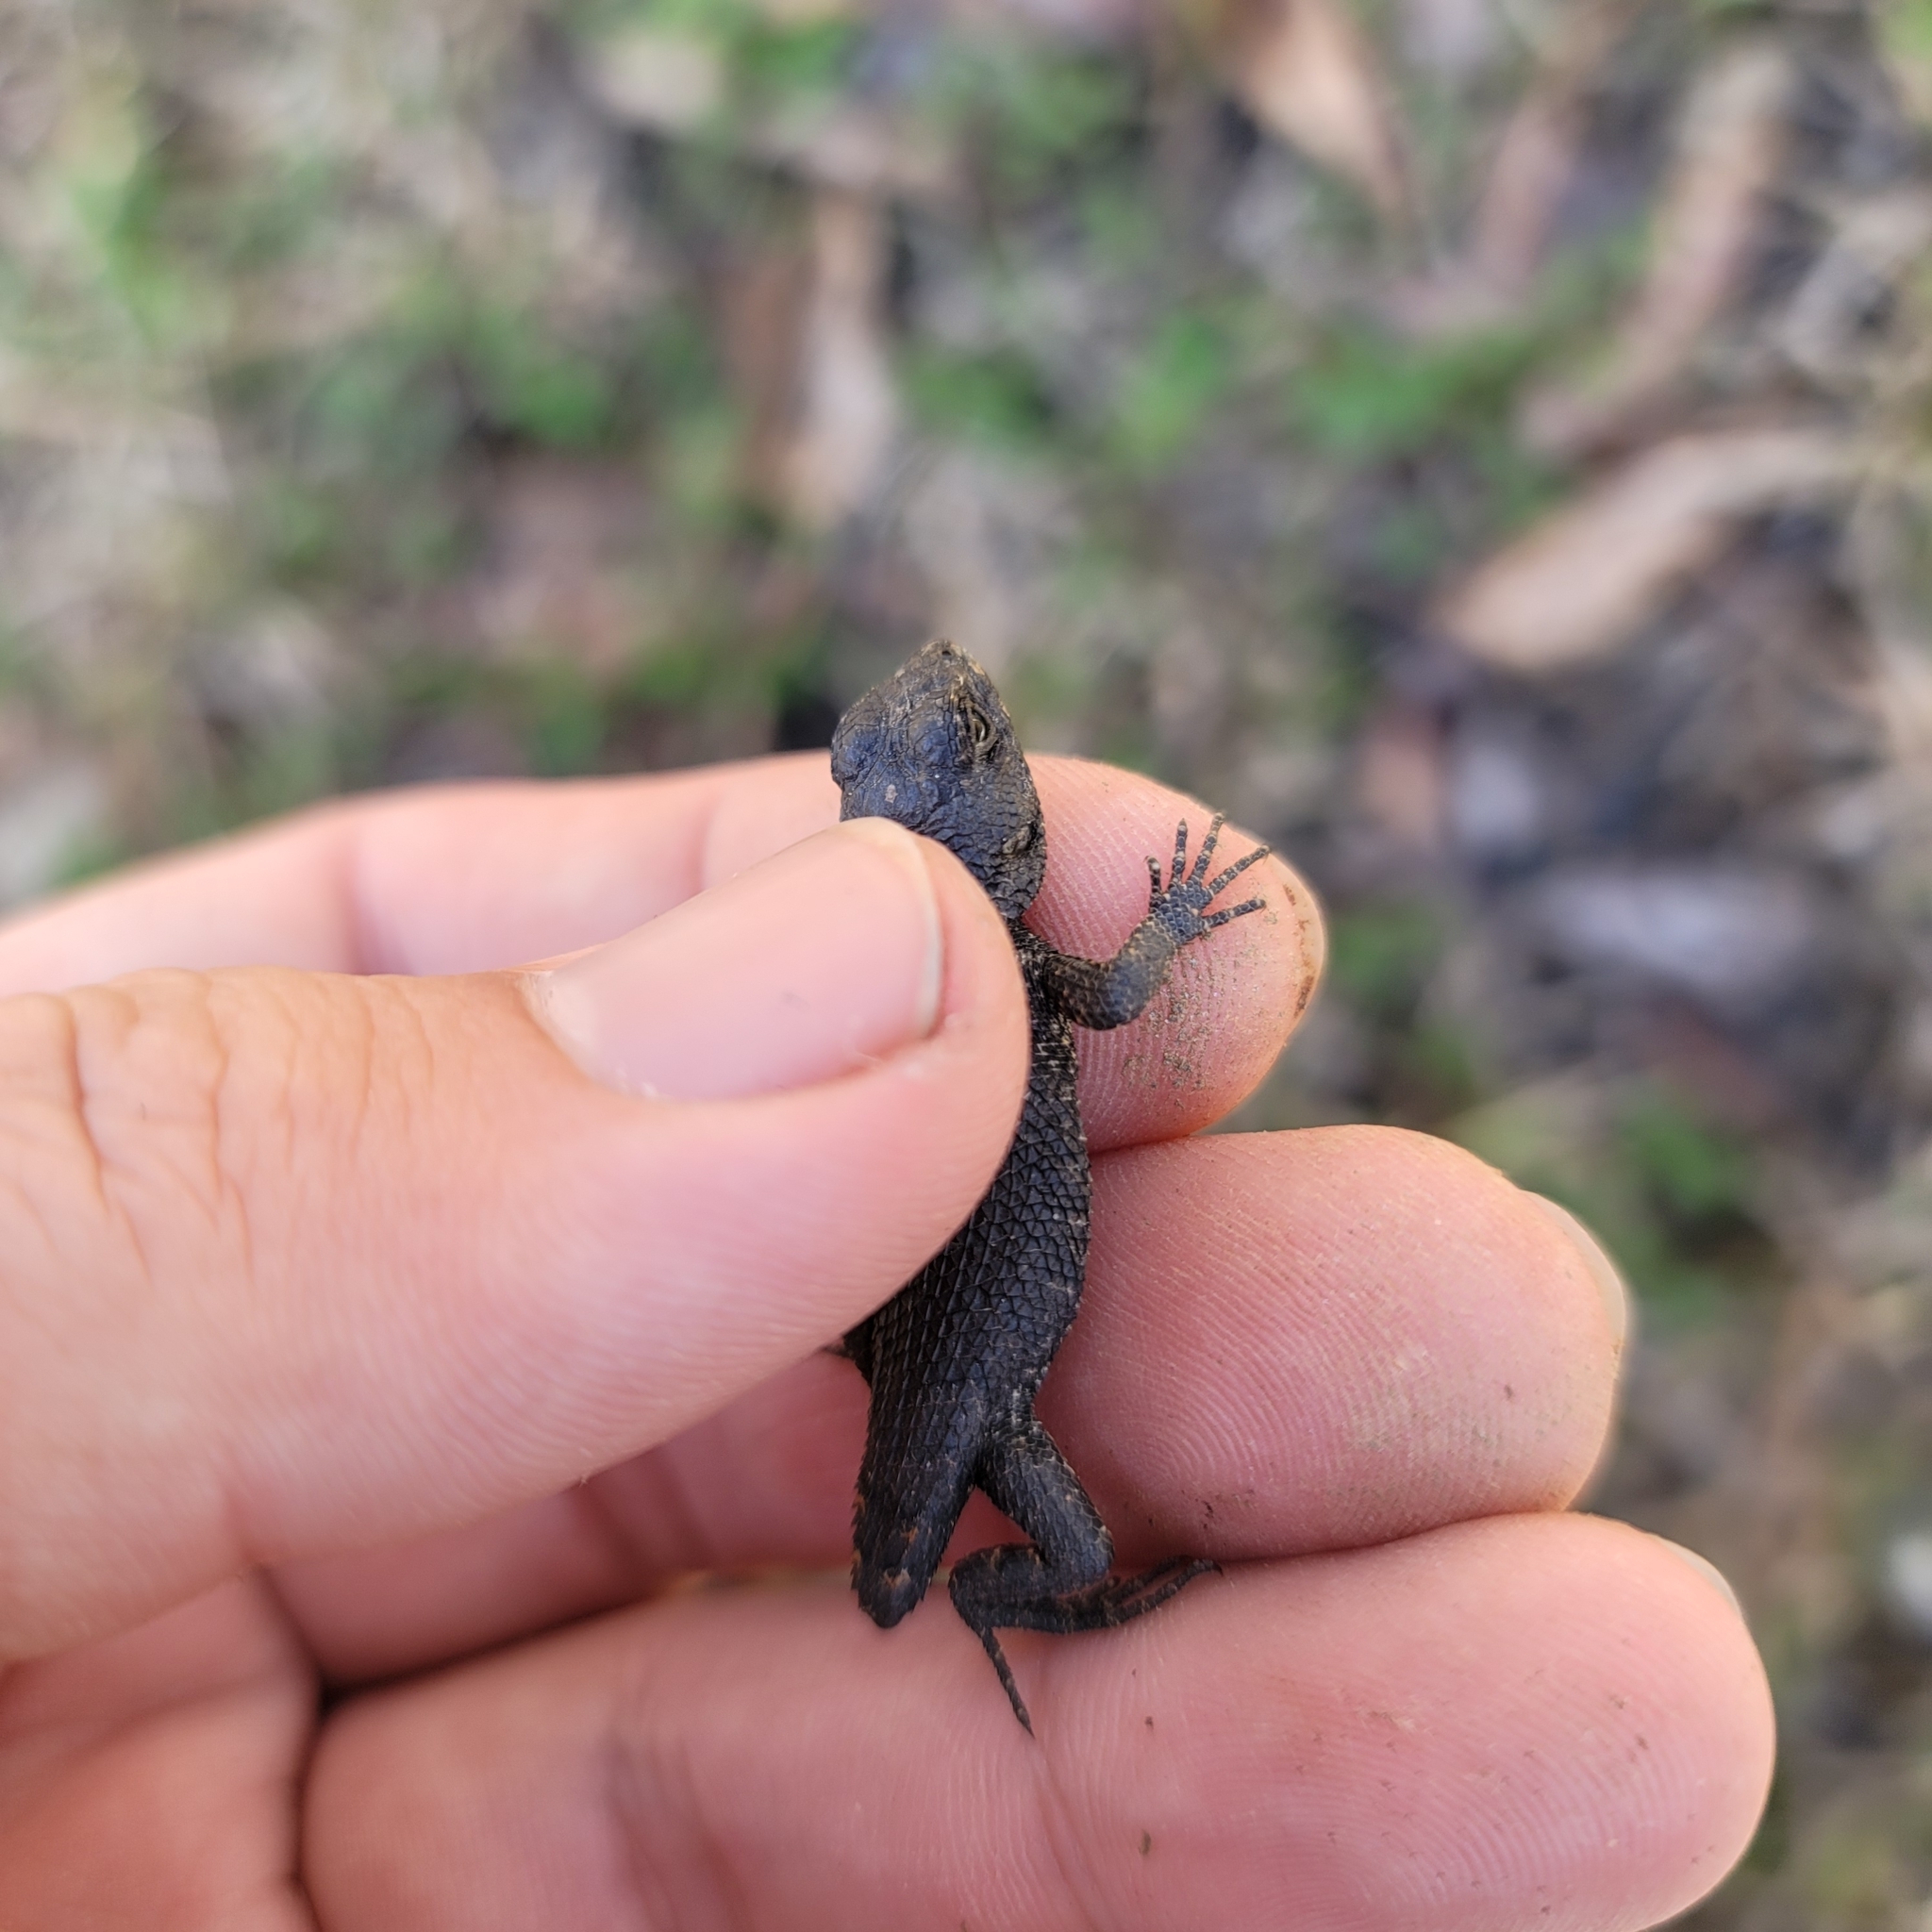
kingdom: Animalia
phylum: Chordata
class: Squamata
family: Phrynosomatidae
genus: Sceloporus
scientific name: Sceloporus undulatus
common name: Eastern fence lizard
